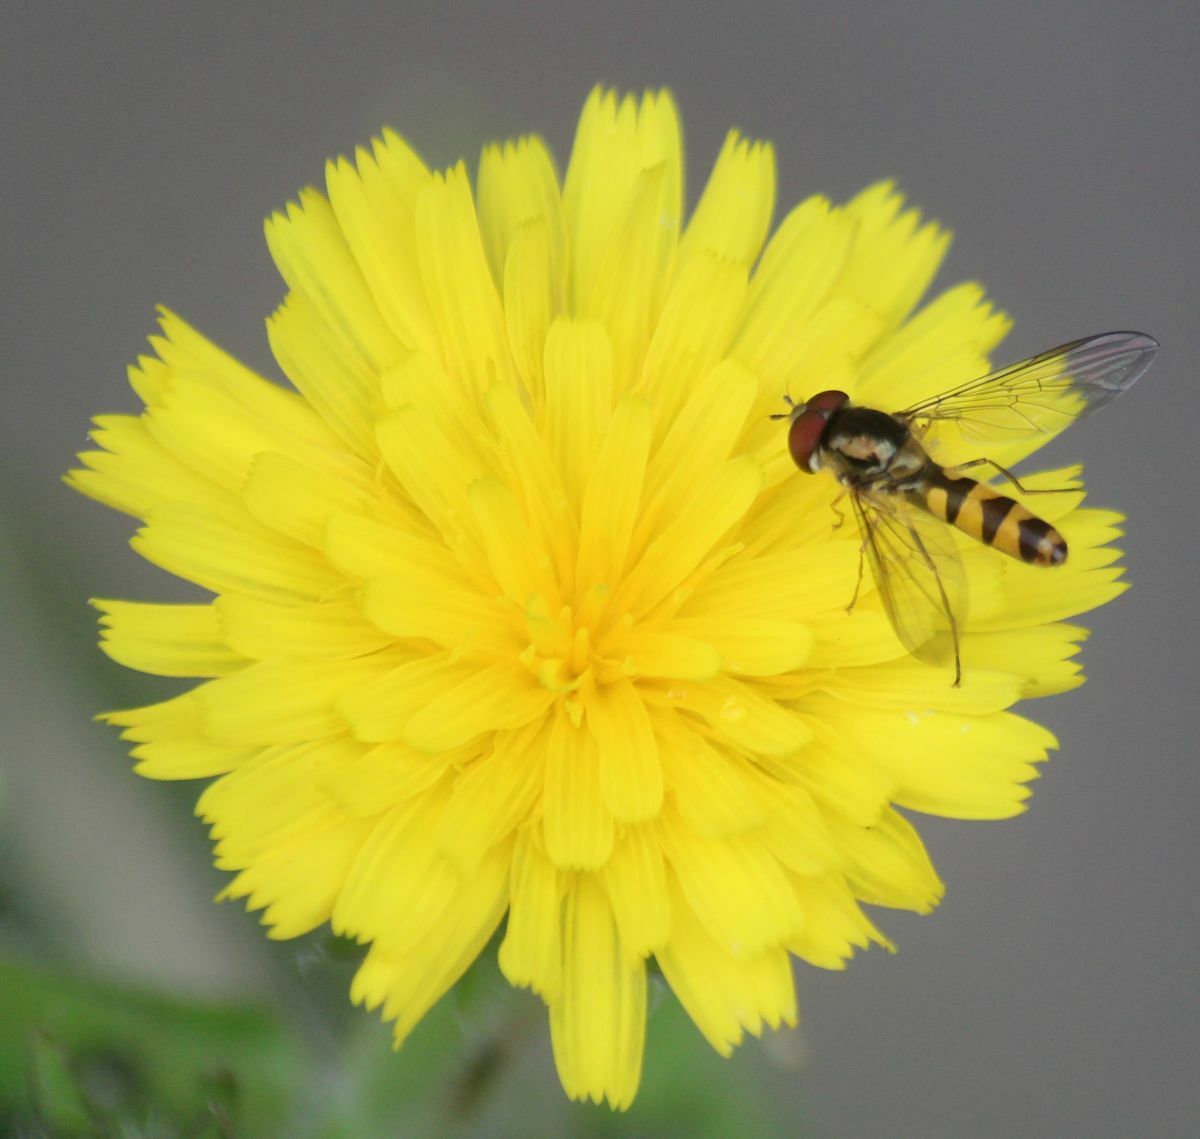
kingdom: Animalia
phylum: Arthropoda
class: Insecta
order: Diptera
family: Syrphidae
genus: Meliscaeva
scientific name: Meliscaeva auricollis
